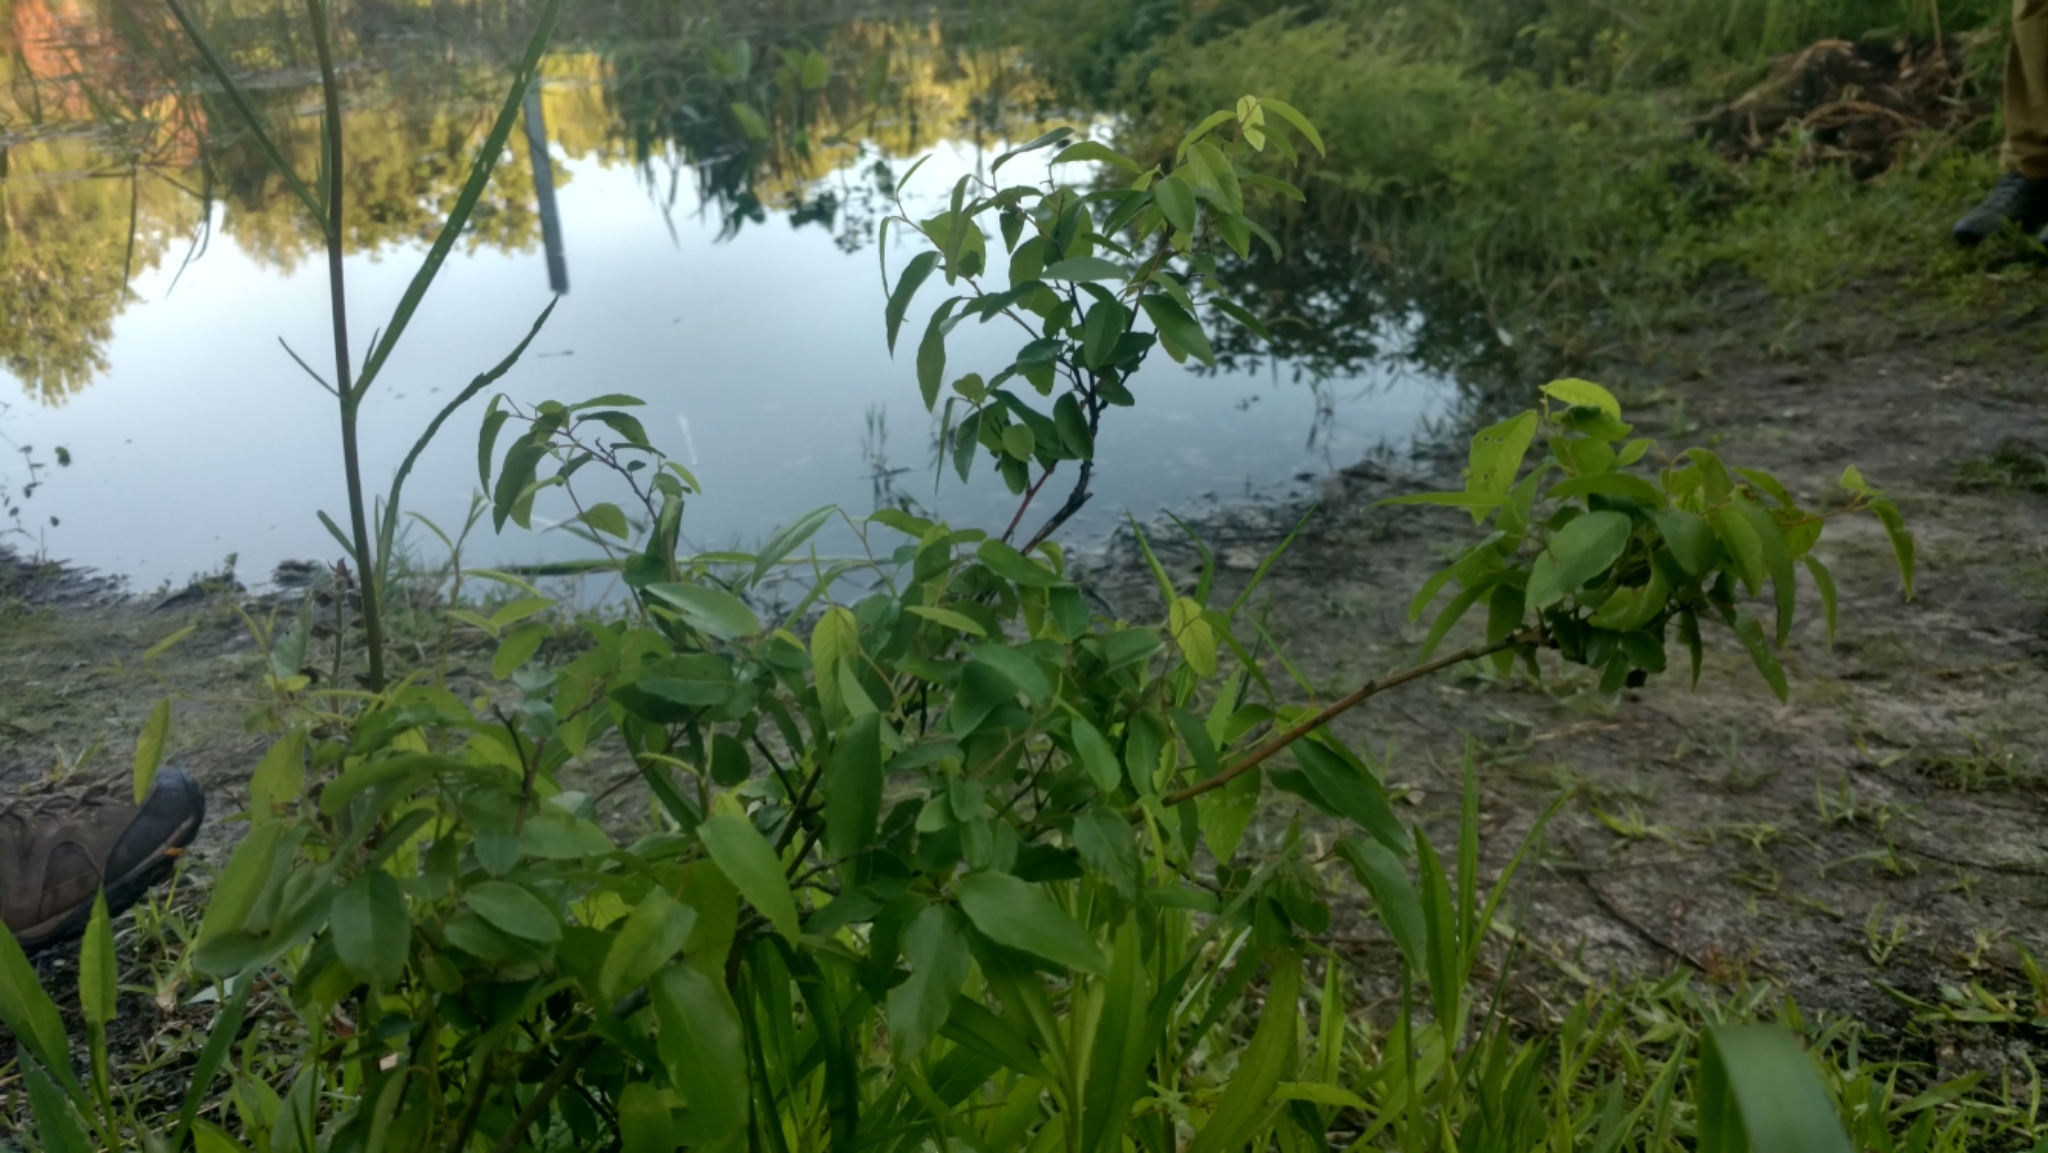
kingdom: Plantae
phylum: Tracheophyta
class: Magnoliopsida
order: Rosales
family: Rhamnaceae
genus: Berchemia
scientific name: Berchemia scandens
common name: Supplejack
